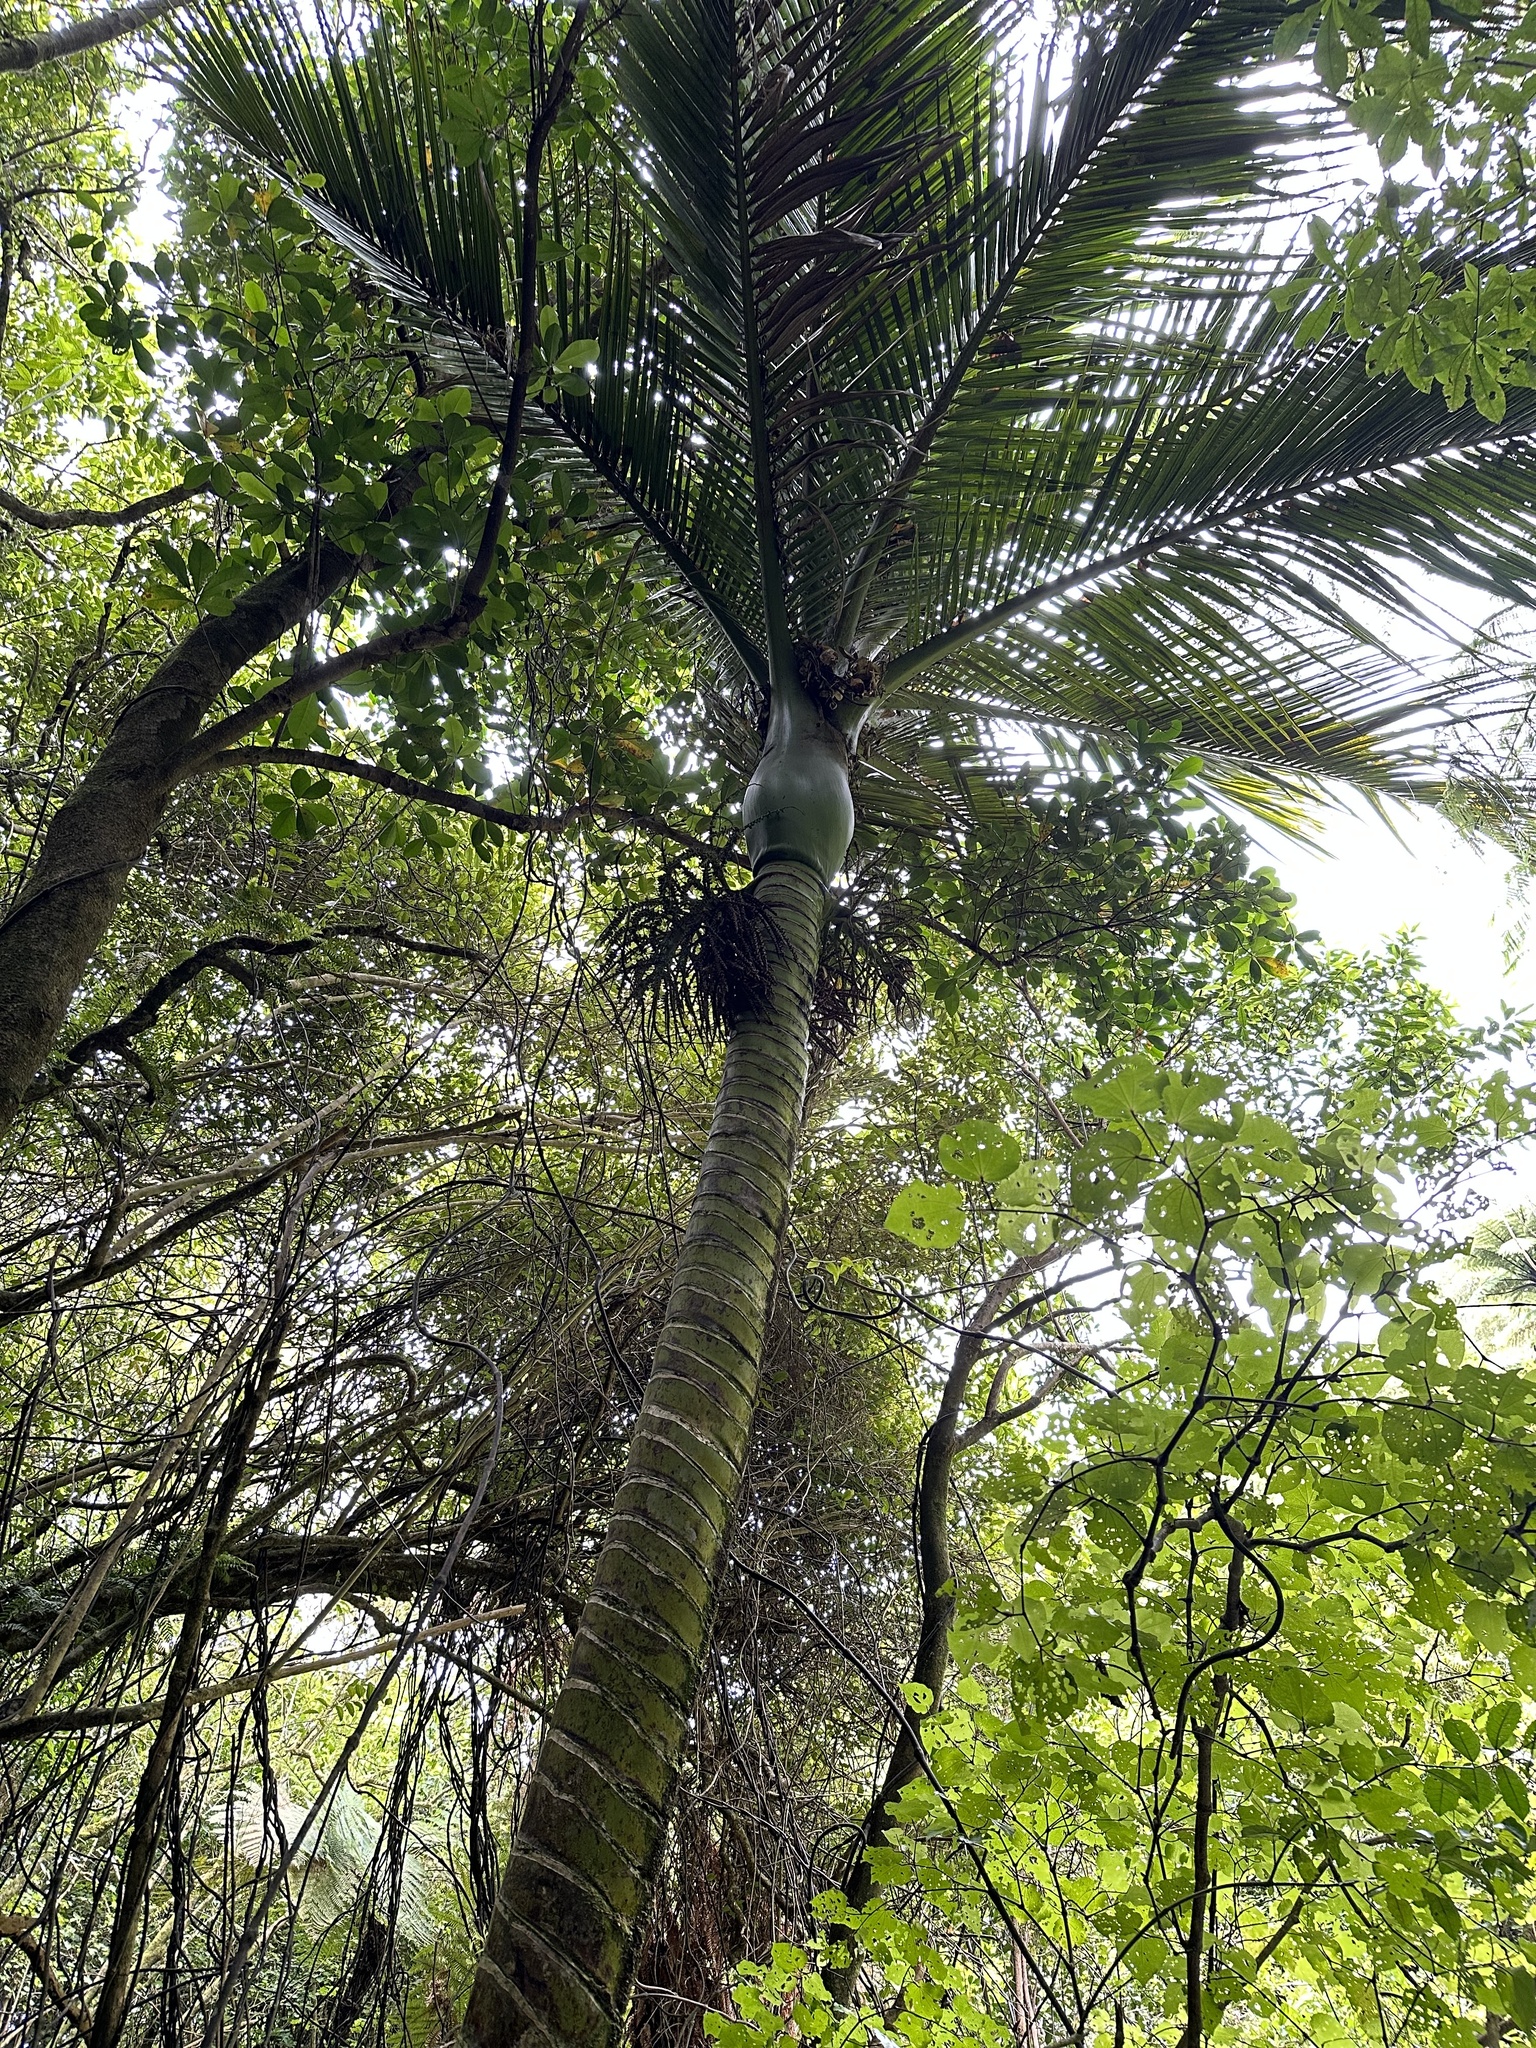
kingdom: Plantae
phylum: Tracheophyta
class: Liliopsida
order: Arecales
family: Arecaceae
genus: Rhopalostylis
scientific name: Rhopalostylis sapida
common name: Feather-duster palm
